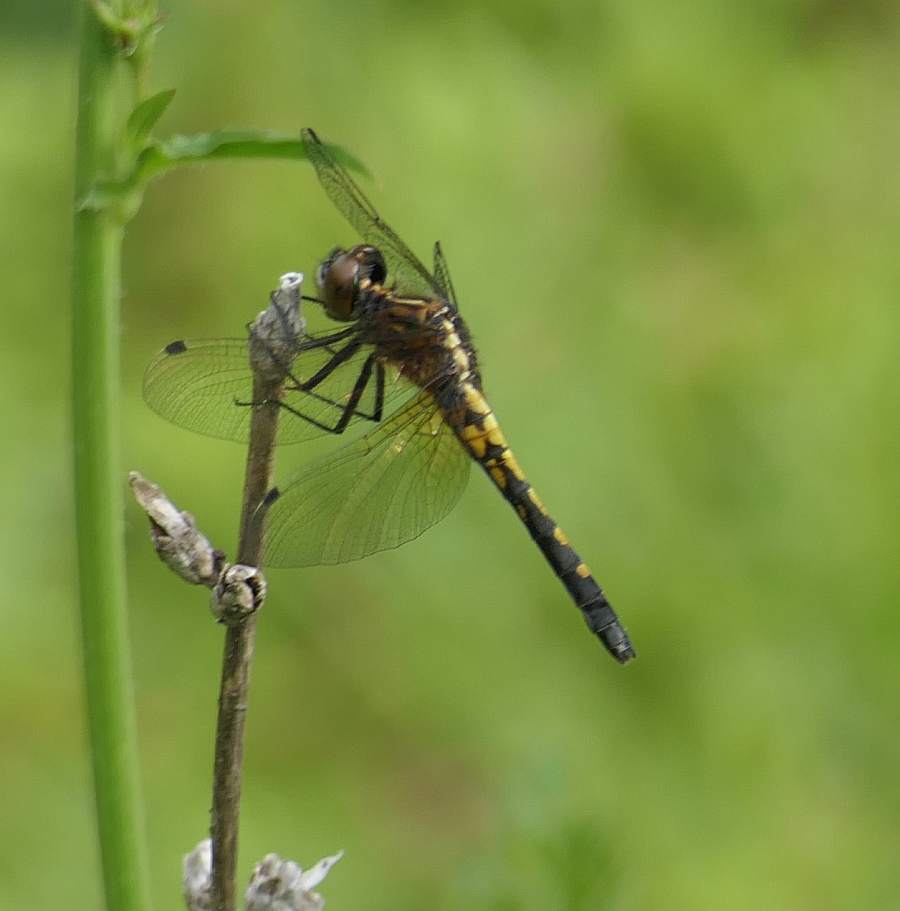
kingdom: Animalia
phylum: Arthropoda
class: Insecta
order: Odonata
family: Libellulidae
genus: Leucorrhinia
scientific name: Leucorrhinia intacta
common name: Dot-tailed whiteface
